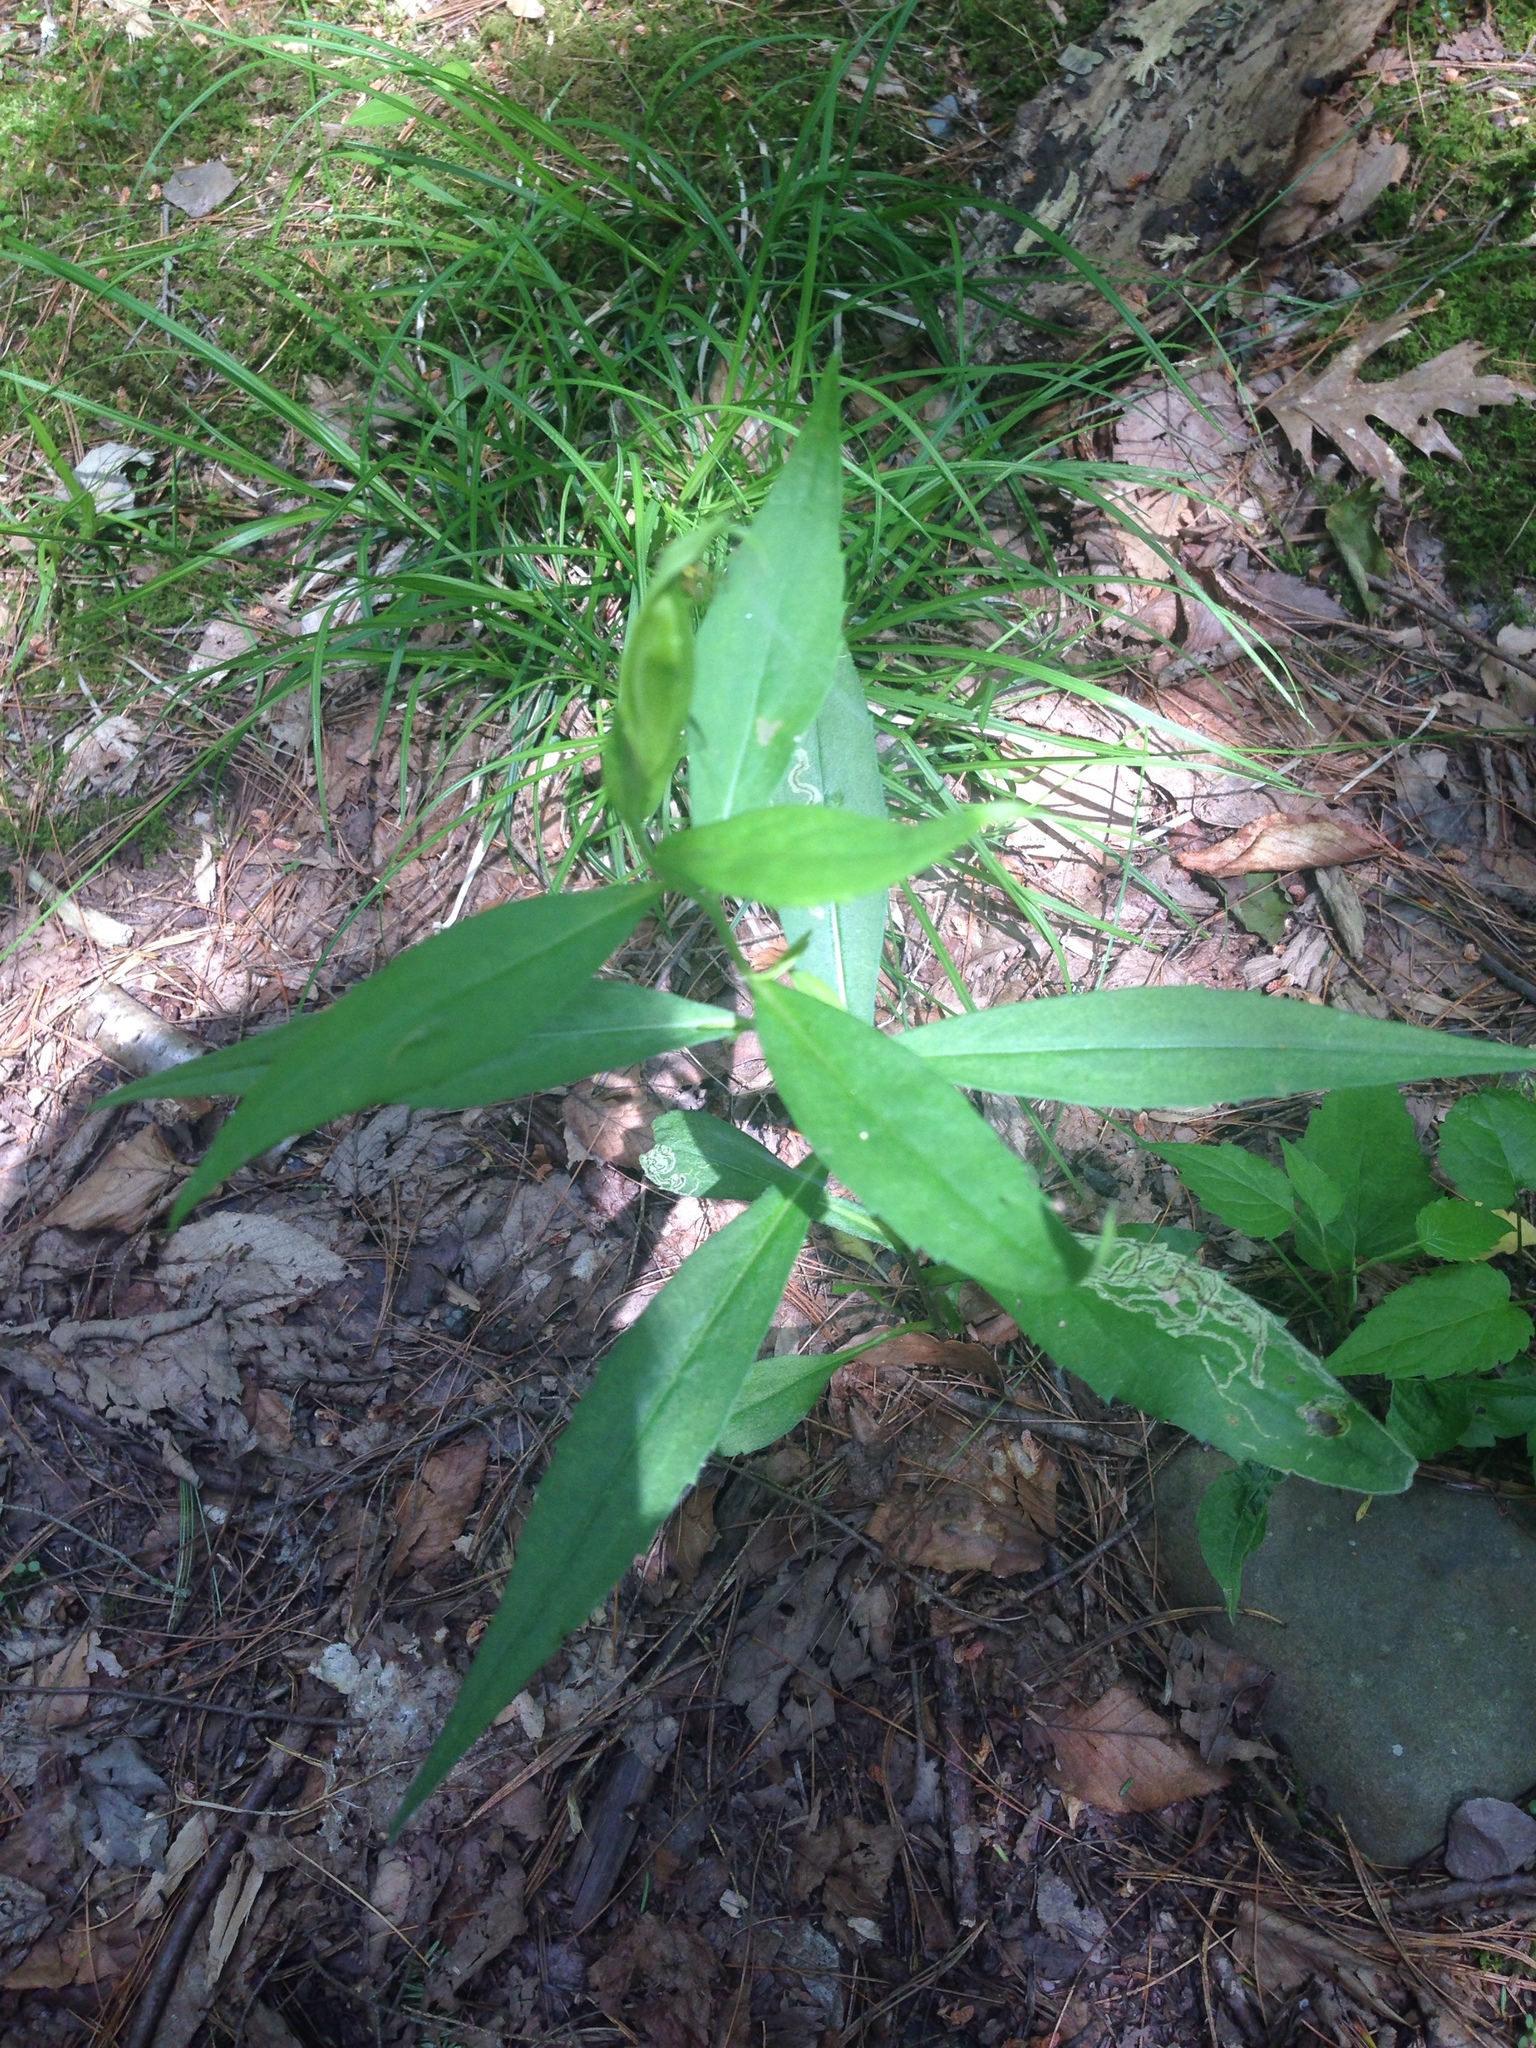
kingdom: Plantae
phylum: Tracheophyta
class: Magnoliopsida
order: Asterales
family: Asteraceae
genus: Solidago
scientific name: Solidago caesia
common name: Woodland goldenrod
